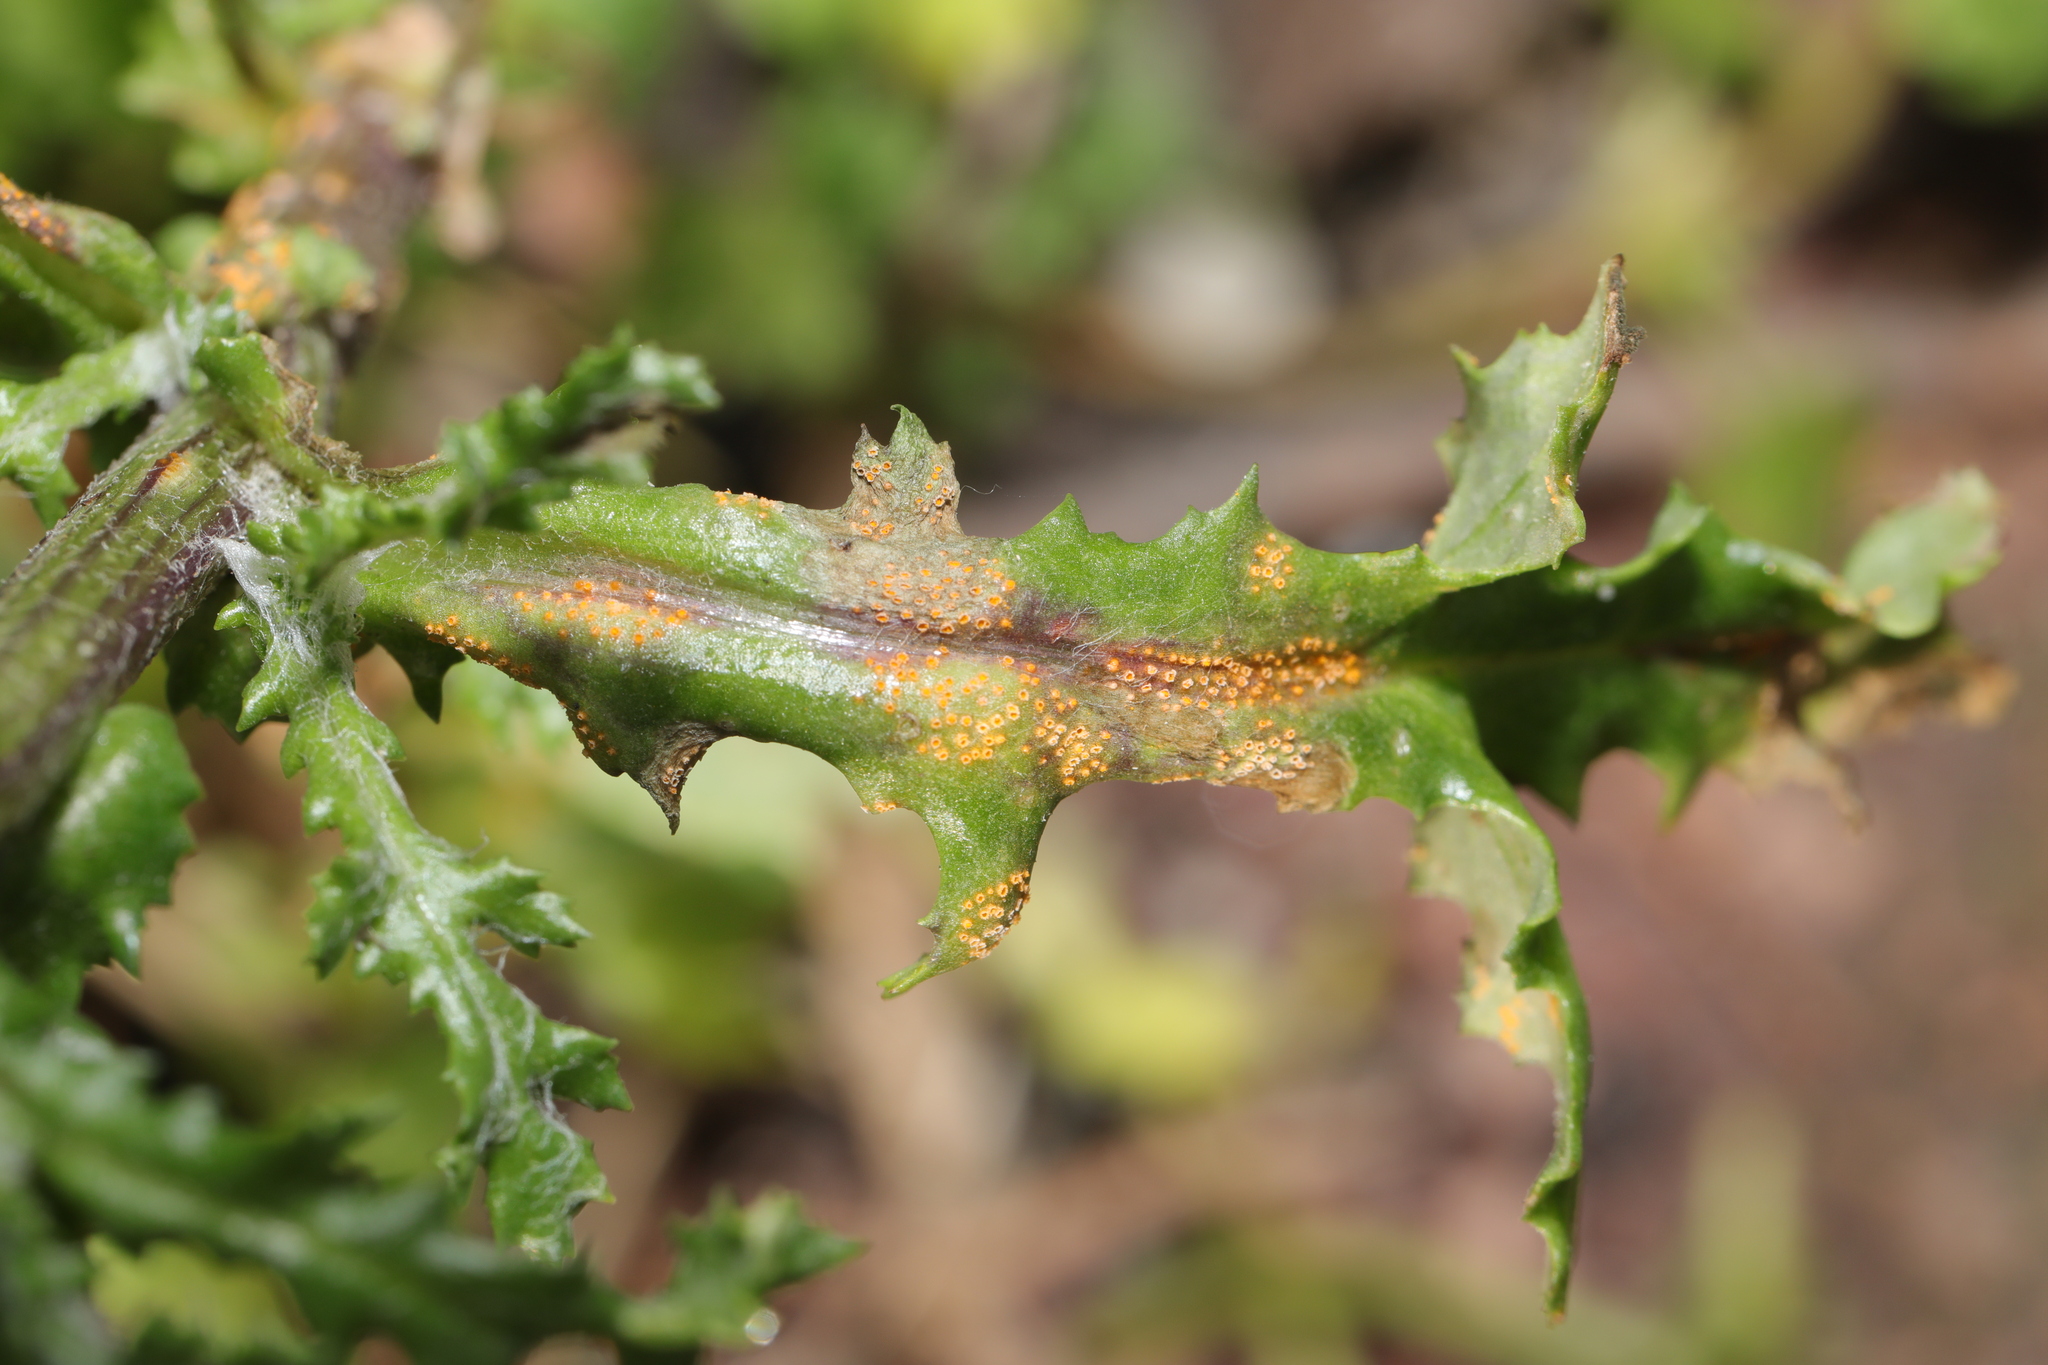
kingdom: Fungi
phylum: Basidiomycota
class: Pucciniomycetes
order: Pucciniales
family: Pucciniaceae
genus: Puccinia
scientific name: Puccinia lagenophorae
